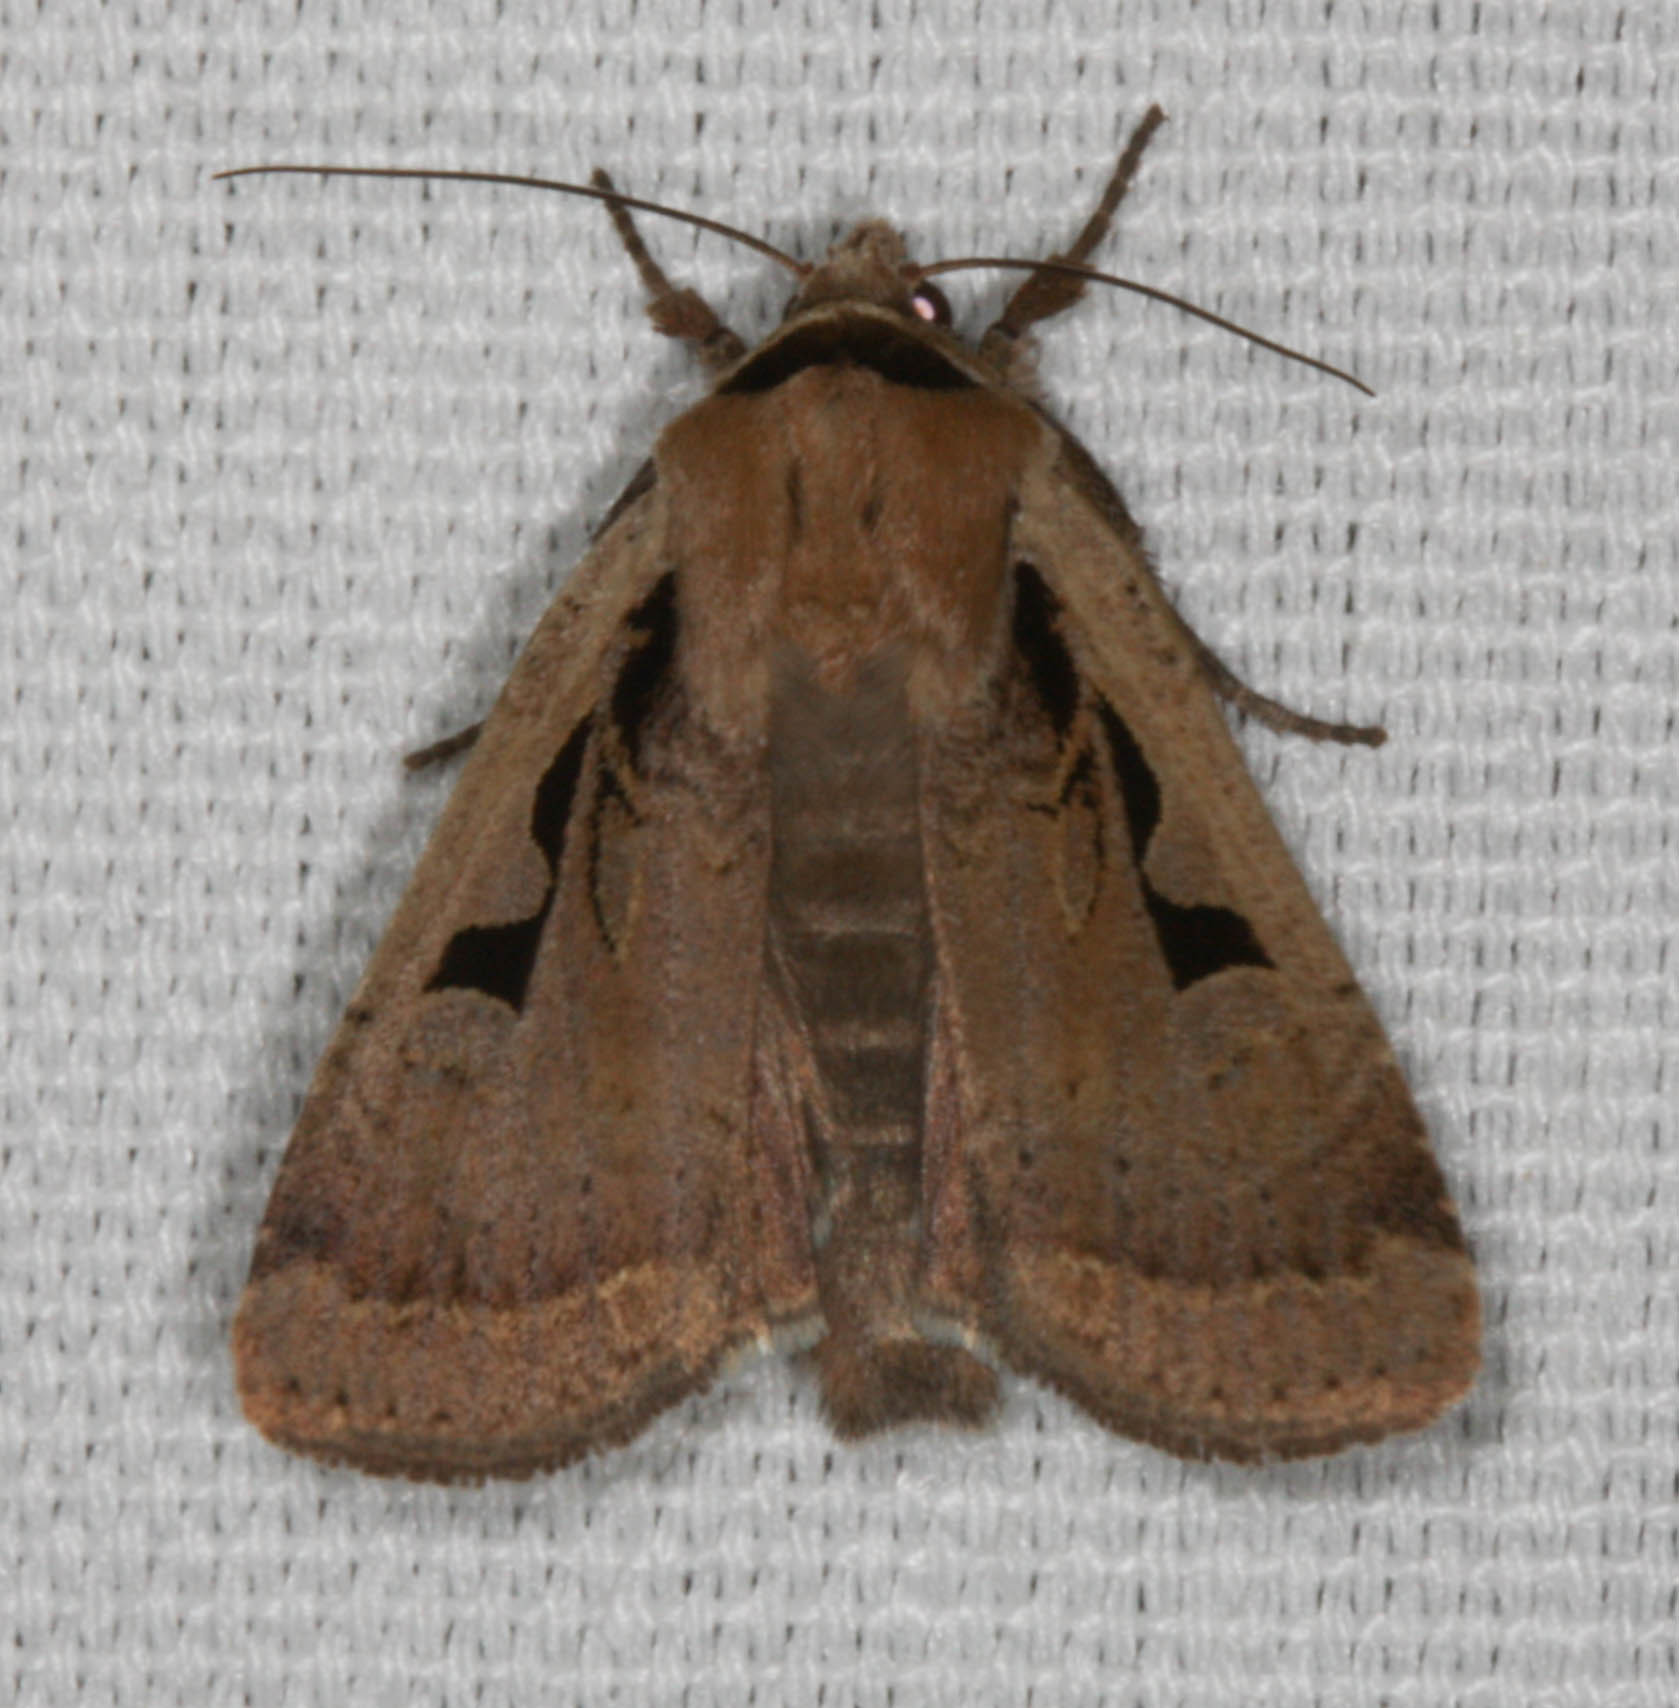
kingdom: Animalia
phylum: Arthropoda
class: Insecta
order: Lepidoptera
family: Noctuidae
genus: Parabagrotis
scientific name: Parabagrotis formalis
